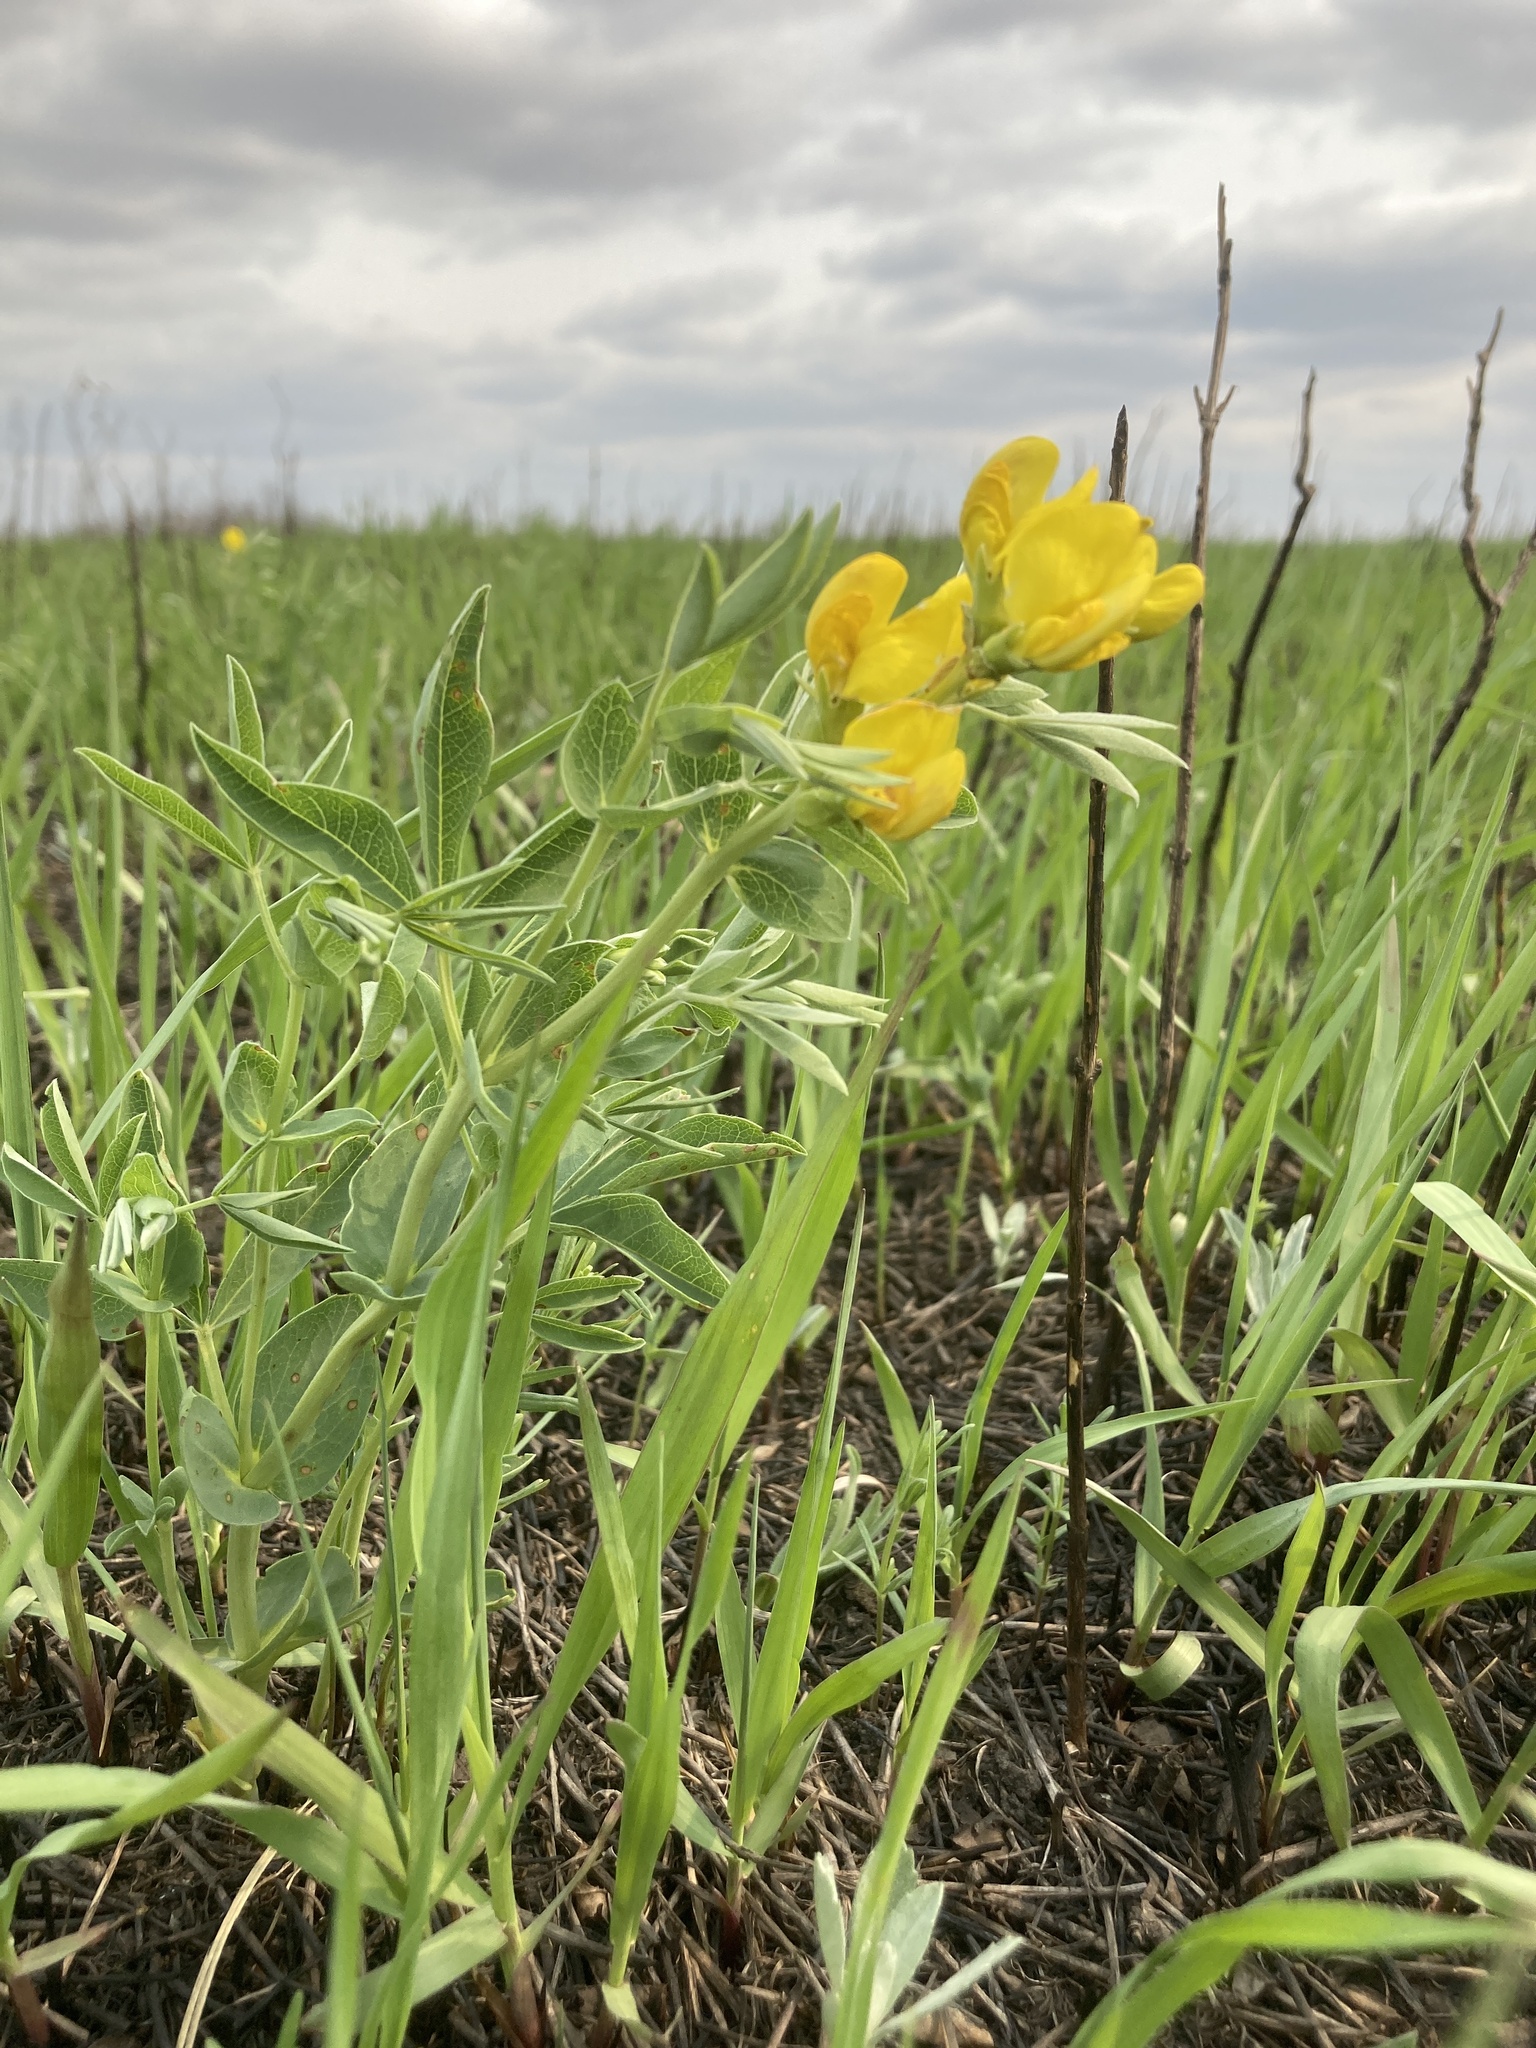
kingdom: Plantae
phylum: Tracheophyta
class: Magnoliopsida
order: Fabales
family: Fabaceae
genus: Thermopsis
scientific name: Thermopsis rhombifolia
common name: Circle-pod-pea
